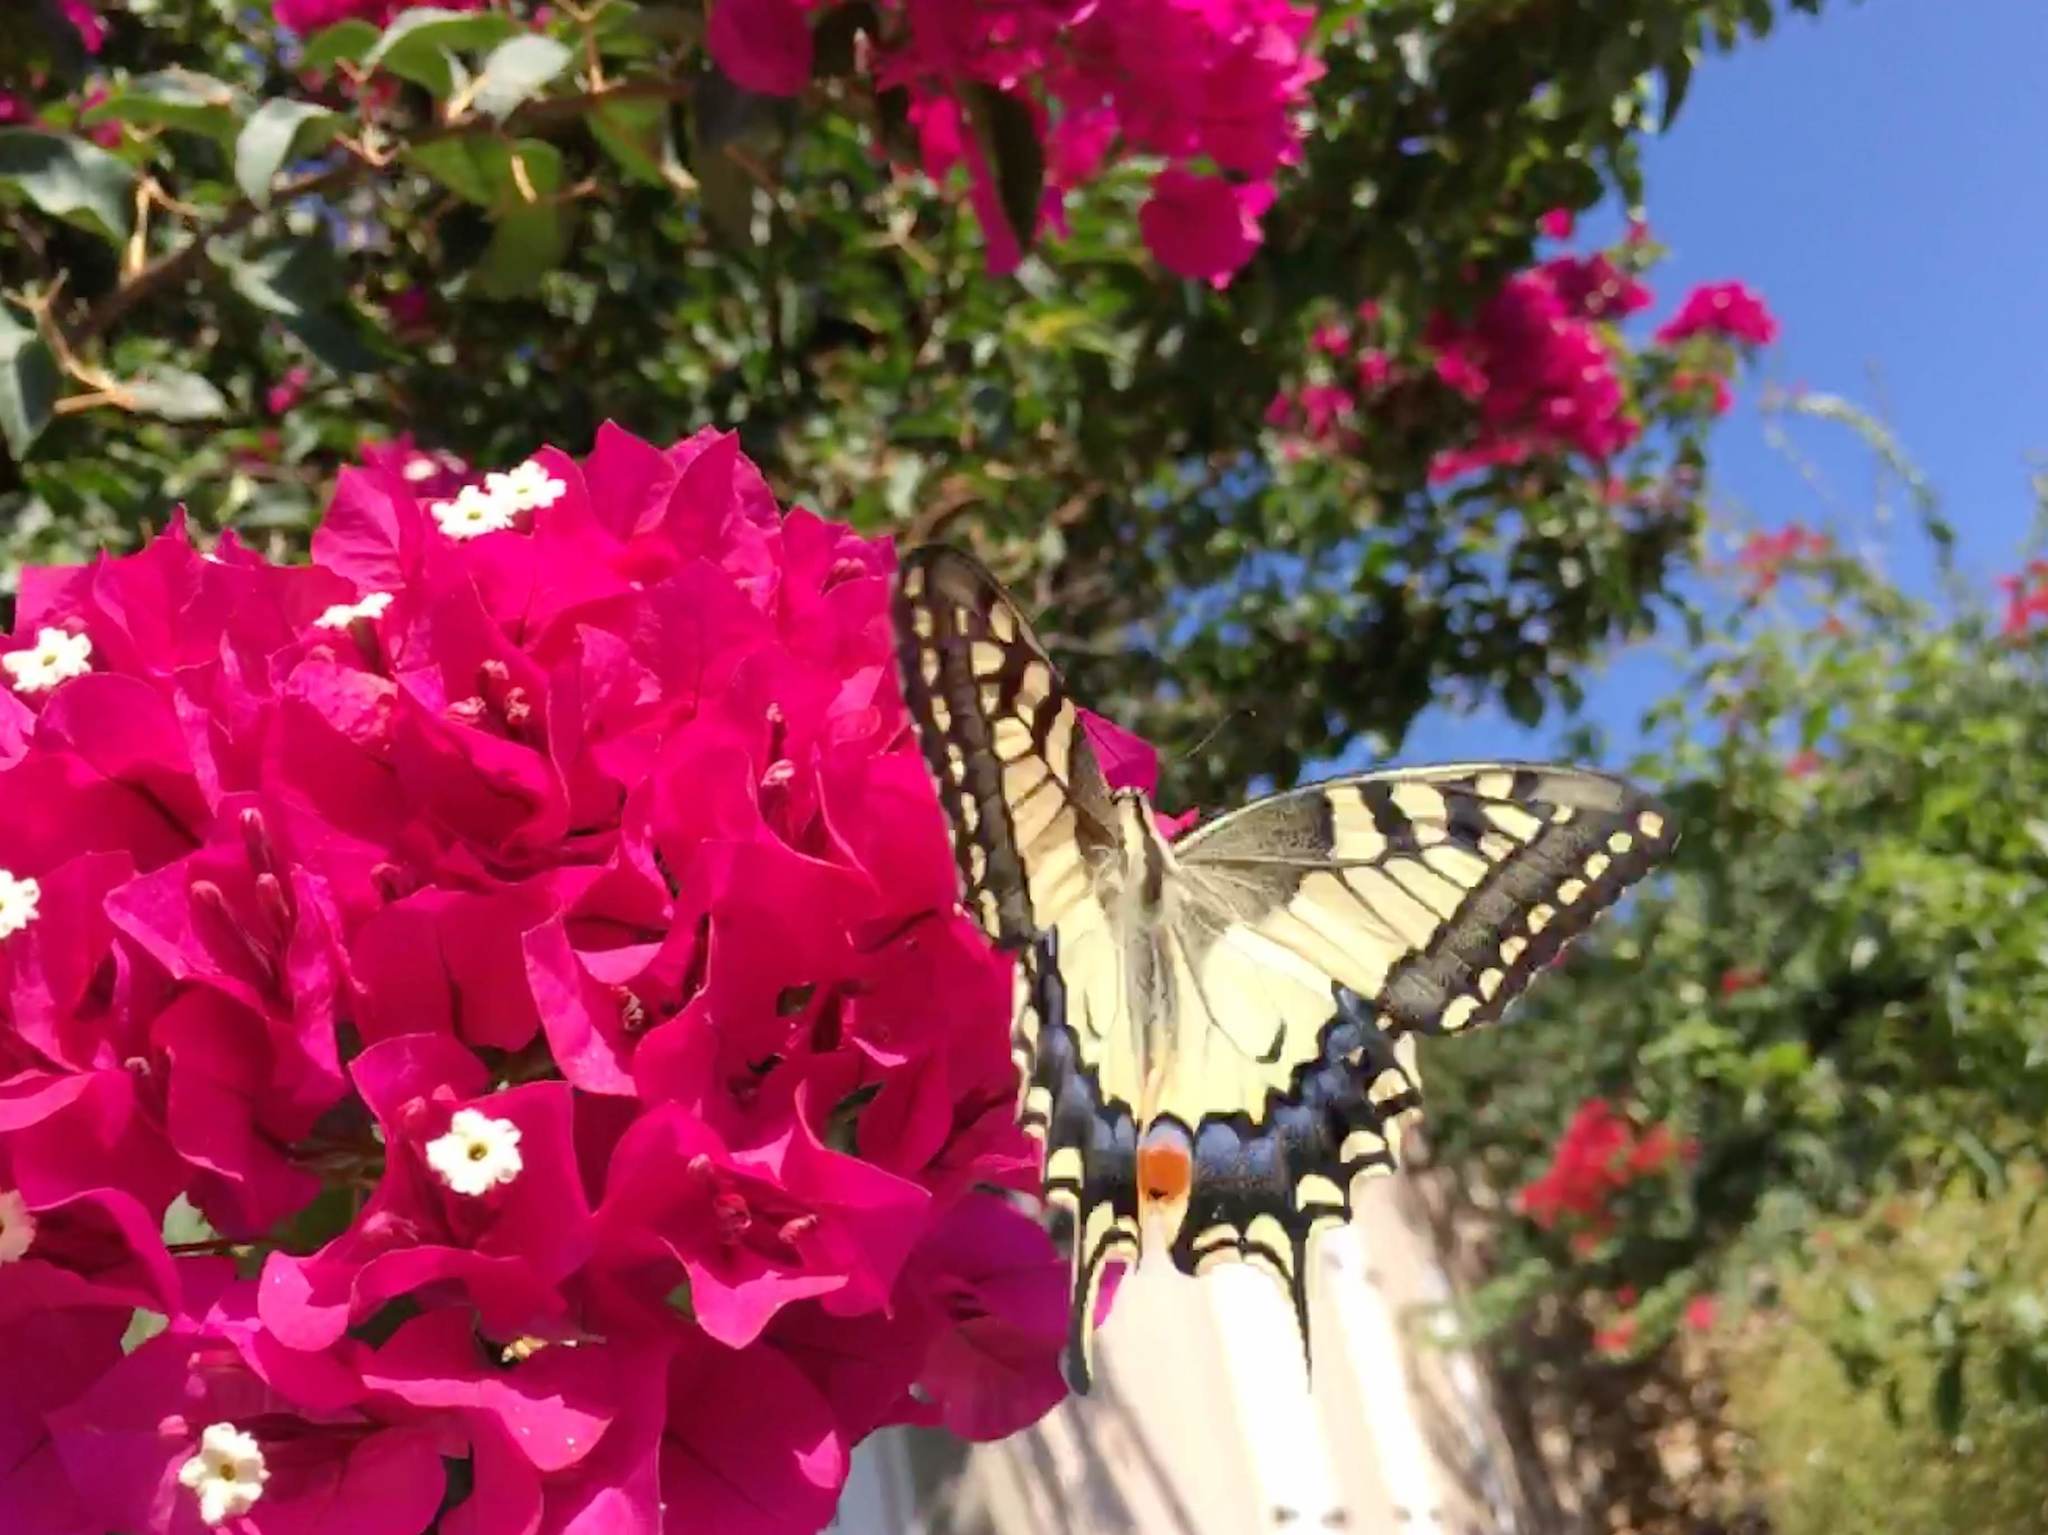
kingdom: Animalia
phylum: Arthropoda
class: Insecta
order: Lepidoptera
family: Papilionidae
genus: Papilio
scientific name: Papilio machaon
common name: Swallowtail
